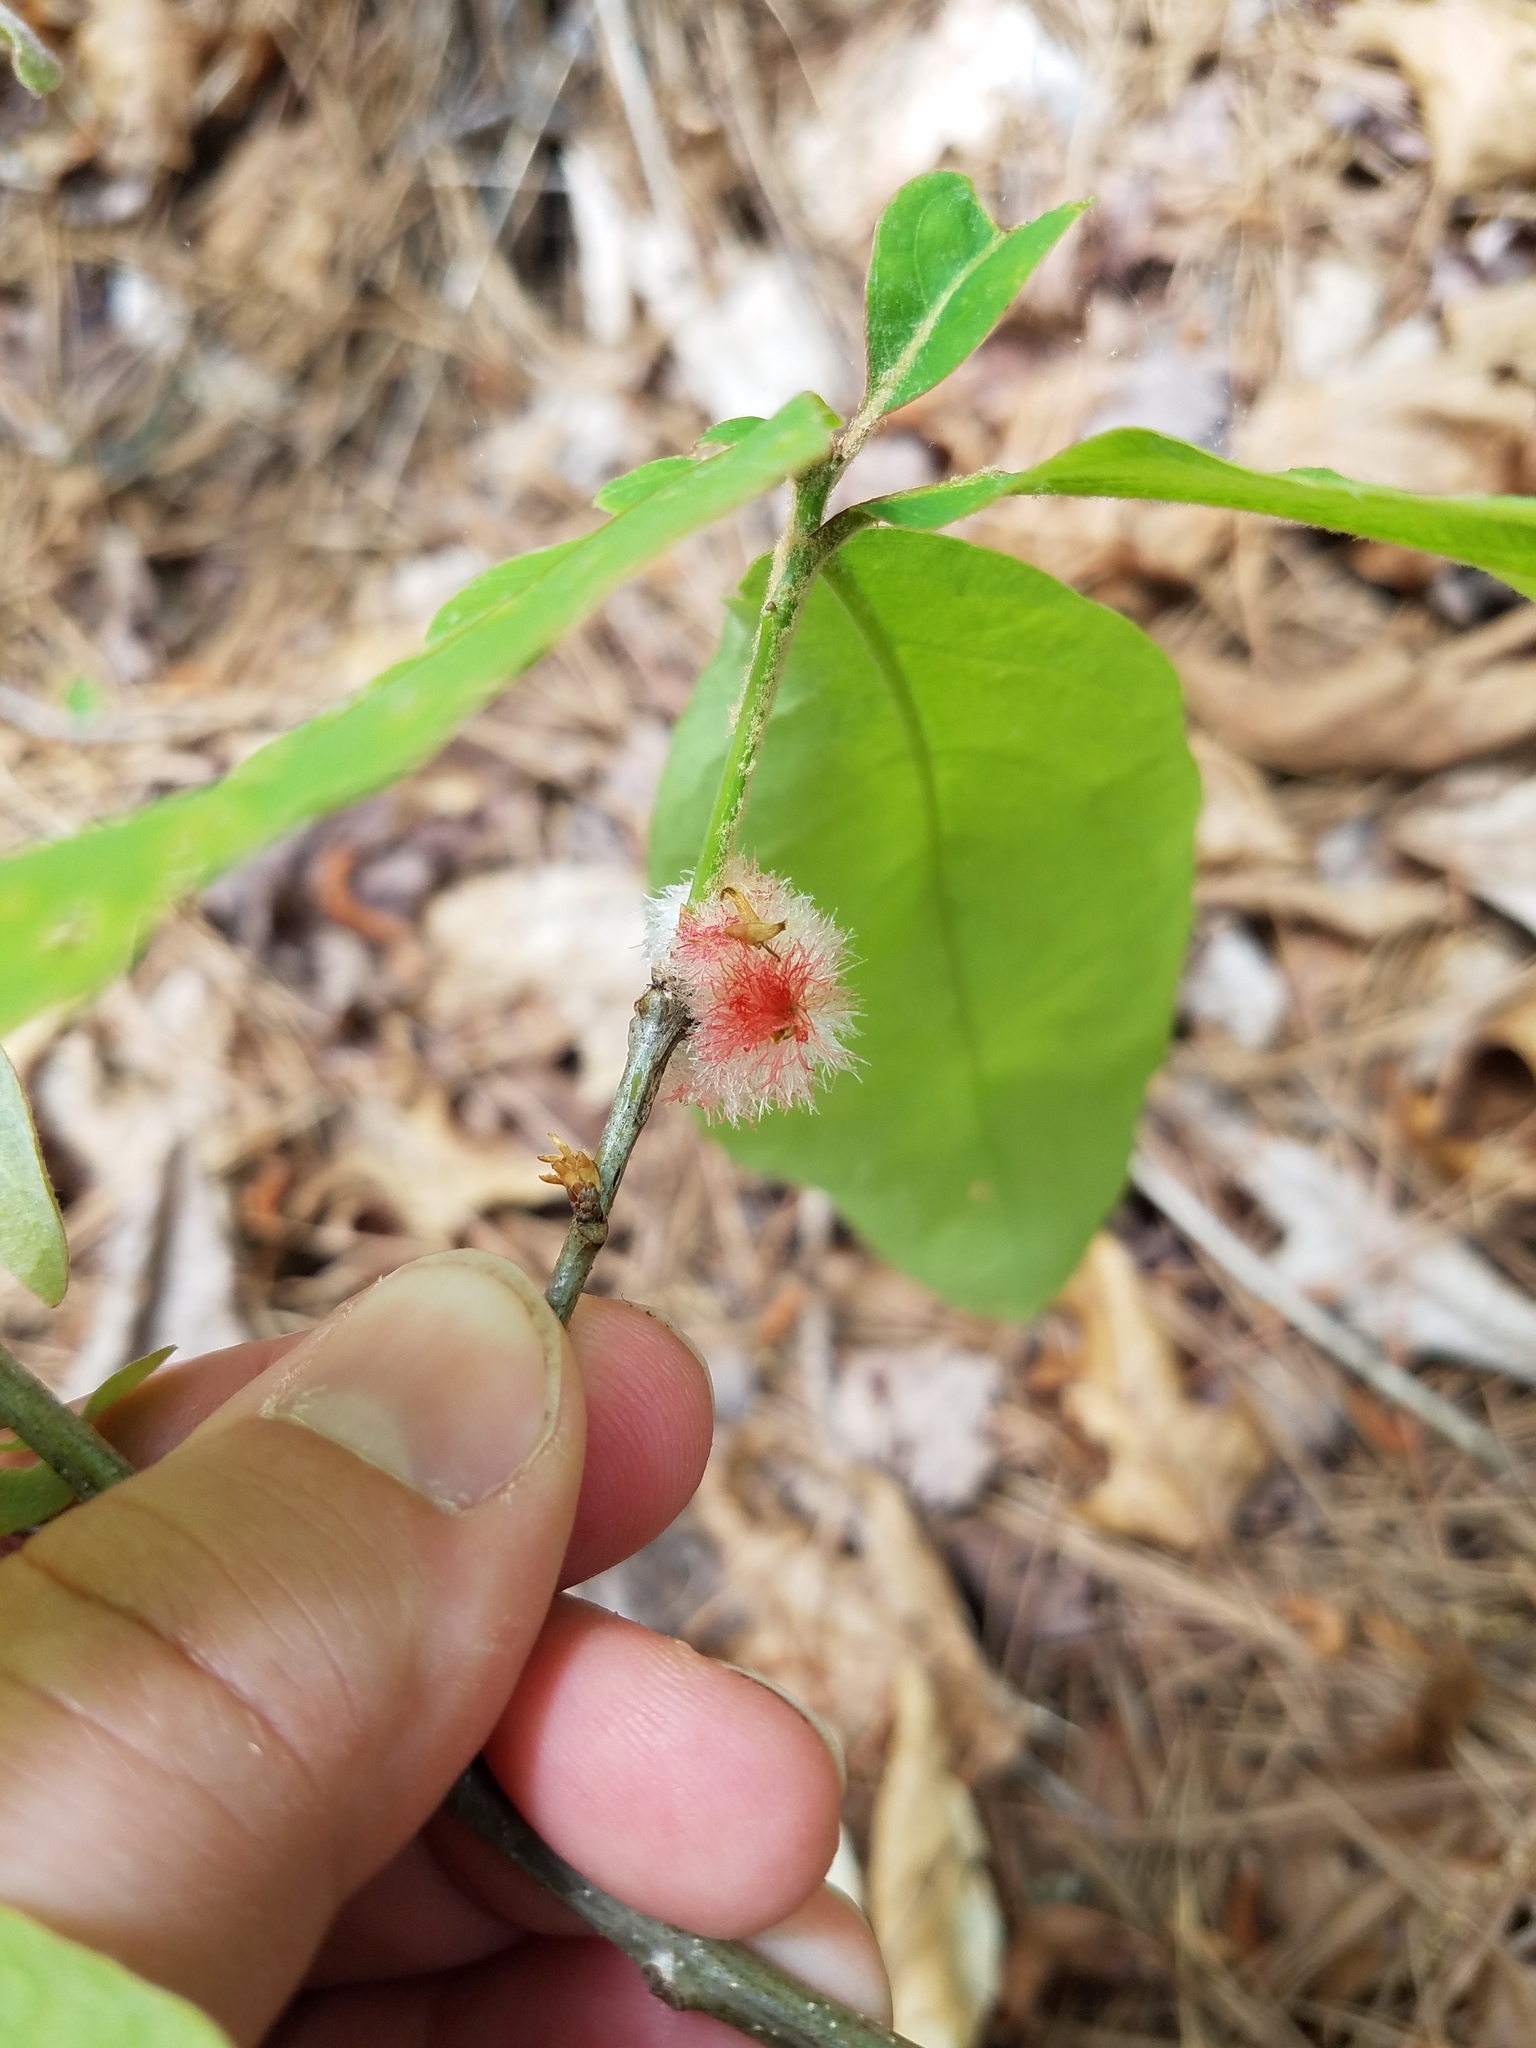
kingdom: Animalia
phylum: Arthropoda
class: Insecta
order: Hymenoptera
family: Cynipidae
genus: Callirhytis
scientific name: Callirhytis
